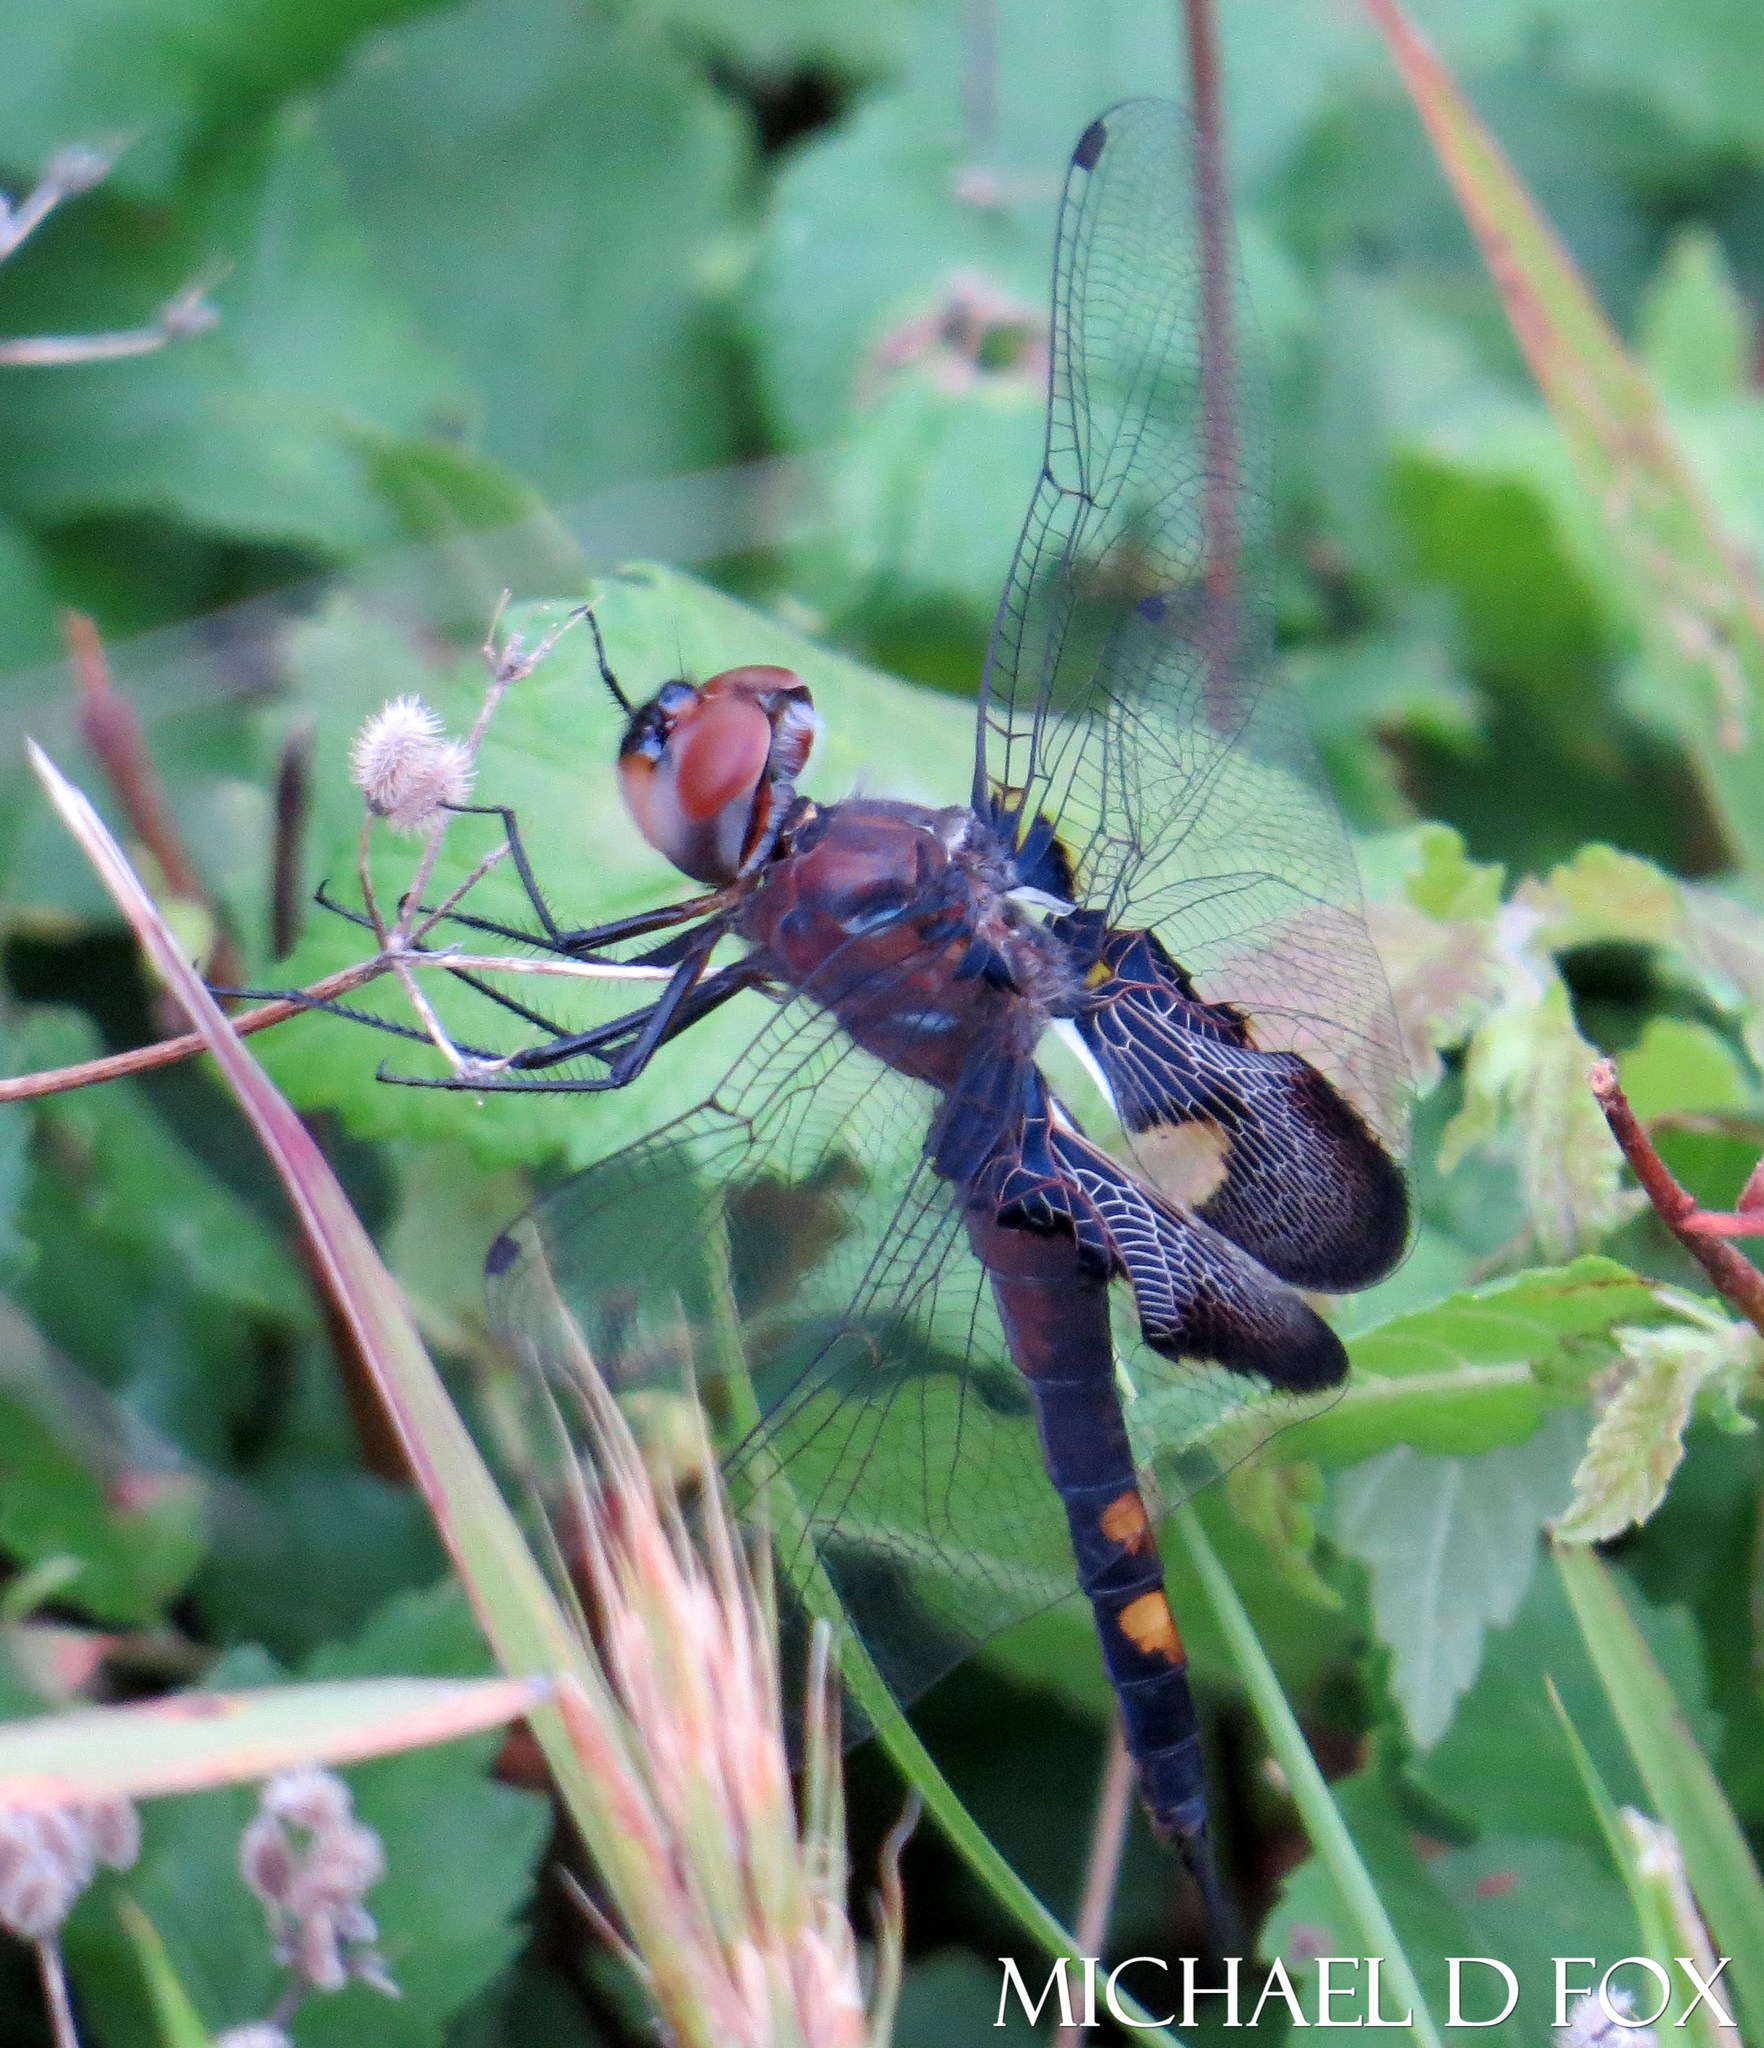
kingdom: Animalia
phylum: Arthropoda
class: Insecta
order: Odonata
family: Libellulidae
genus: Tramea
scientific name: Tramea lacerata
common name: Black saddlebags
